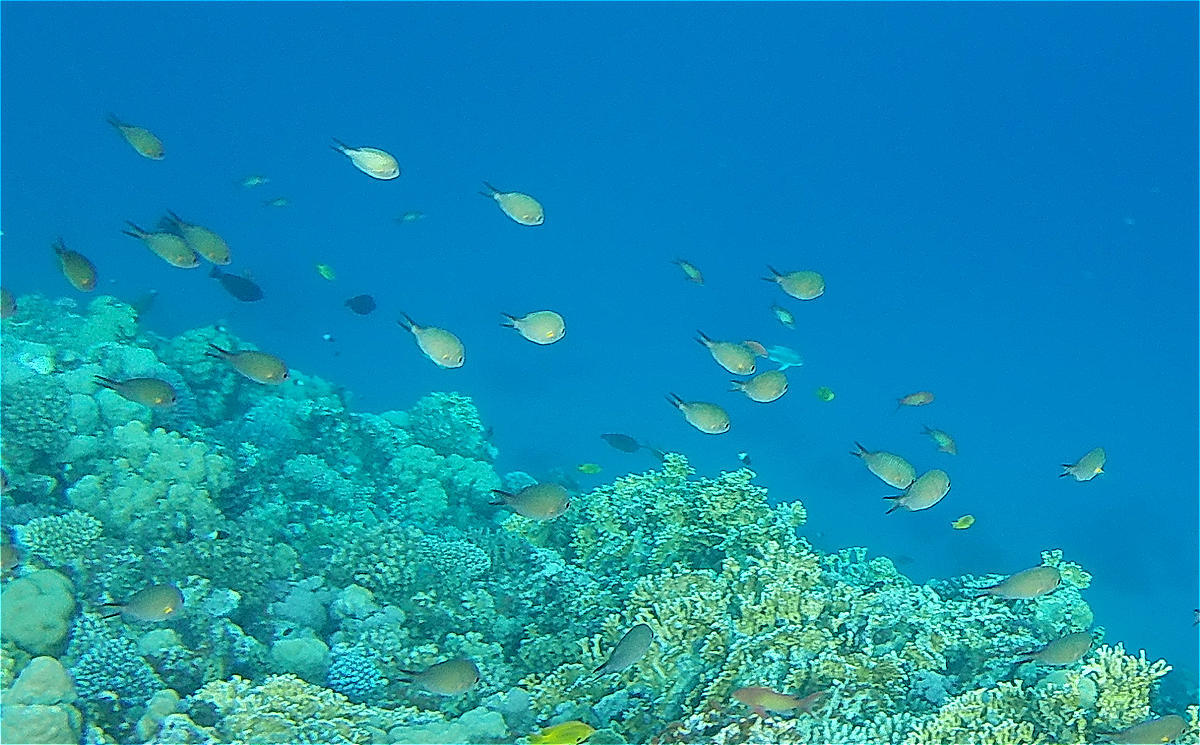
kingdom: Animalia
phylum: Chordata
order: Perciformes
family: Pomacentridae
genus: Amblyglyphidodon
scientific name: Amblyglyphidodon indicus
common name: Maldives damselfish
